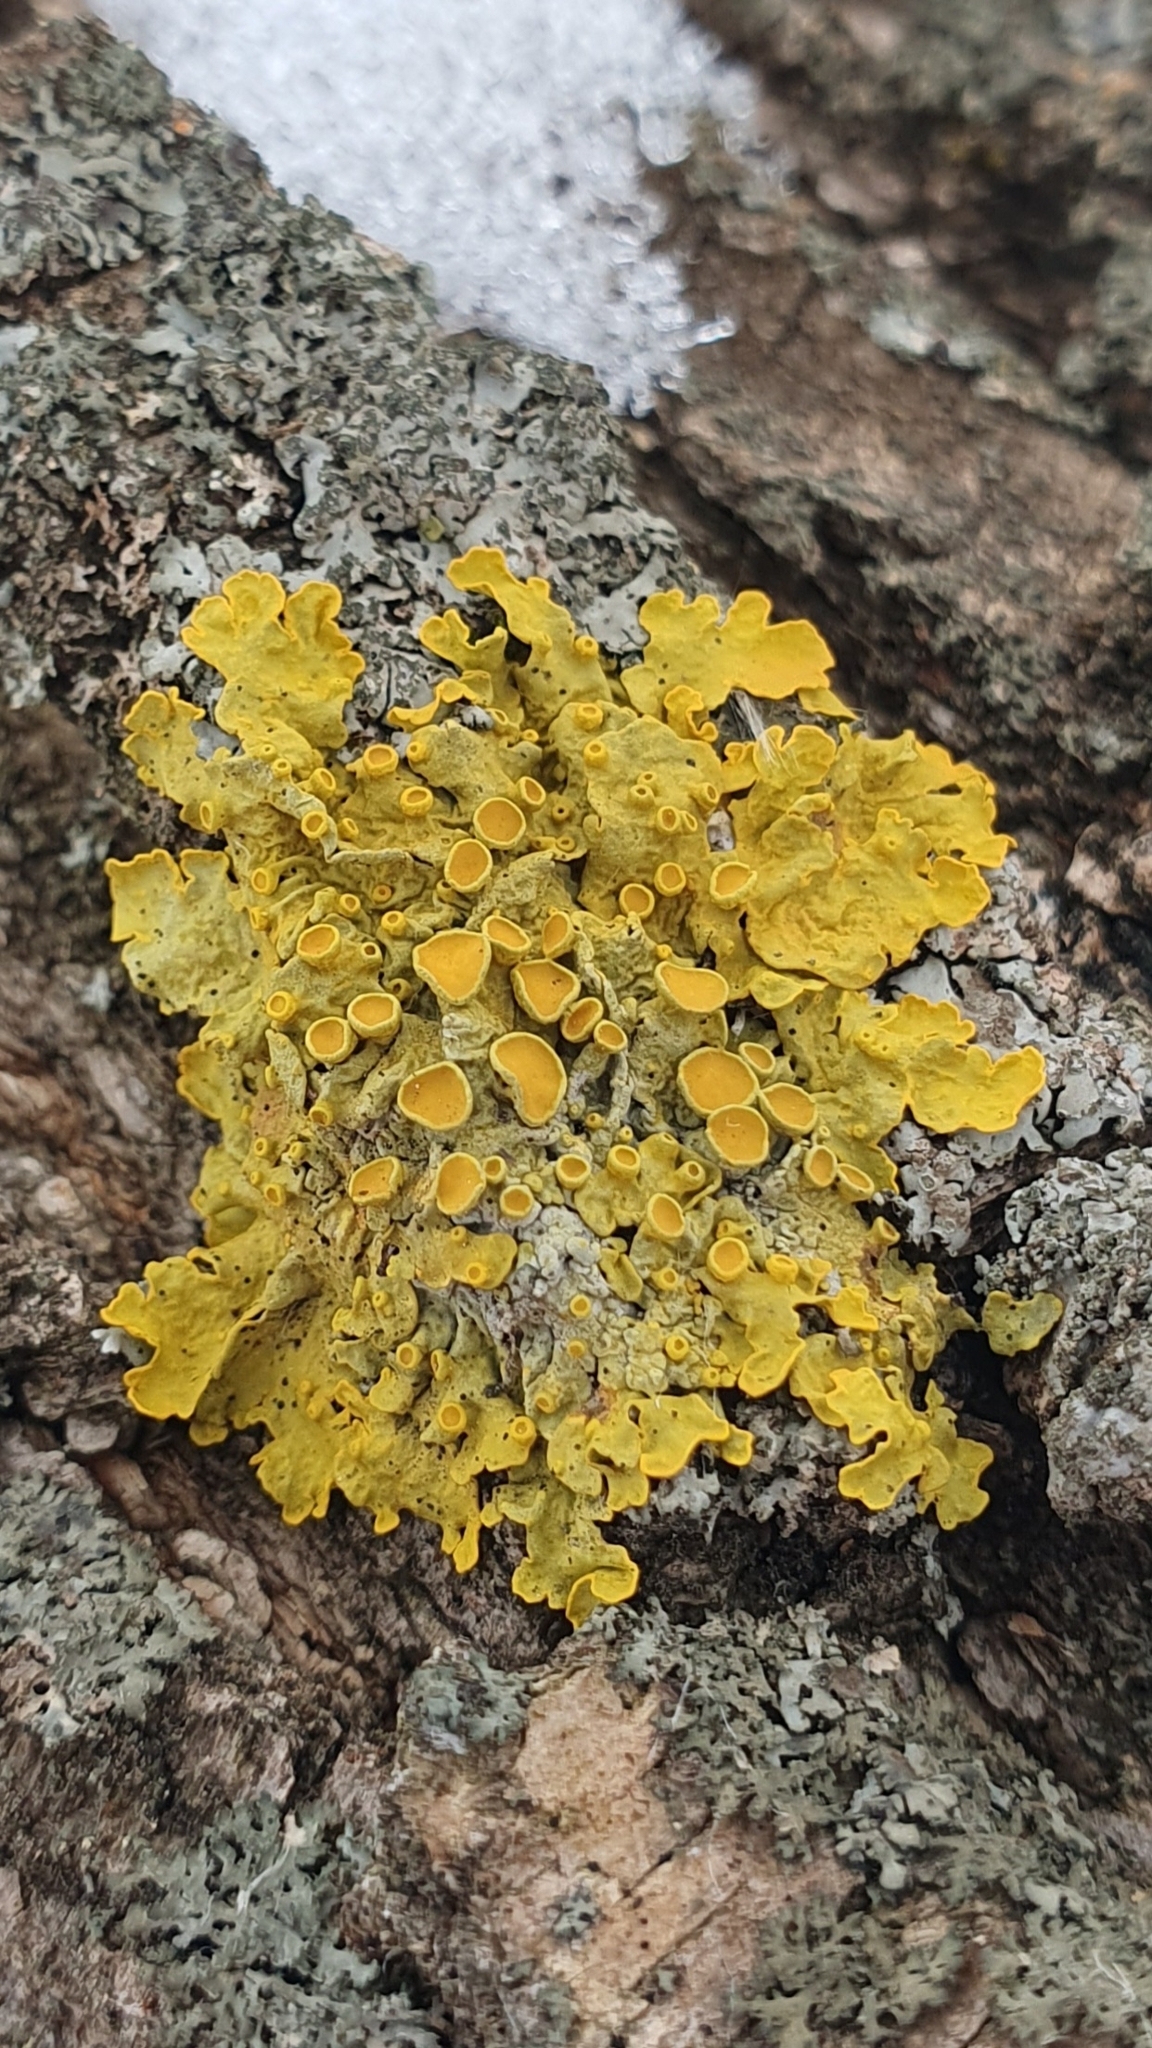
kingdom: Fungi
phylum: Ascomycota
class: Lecanoromycetes
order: Teloschistales
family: Teloschistaceae
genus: Xanthoria
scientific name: Xanthoria parietina
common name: Common orange lichen
